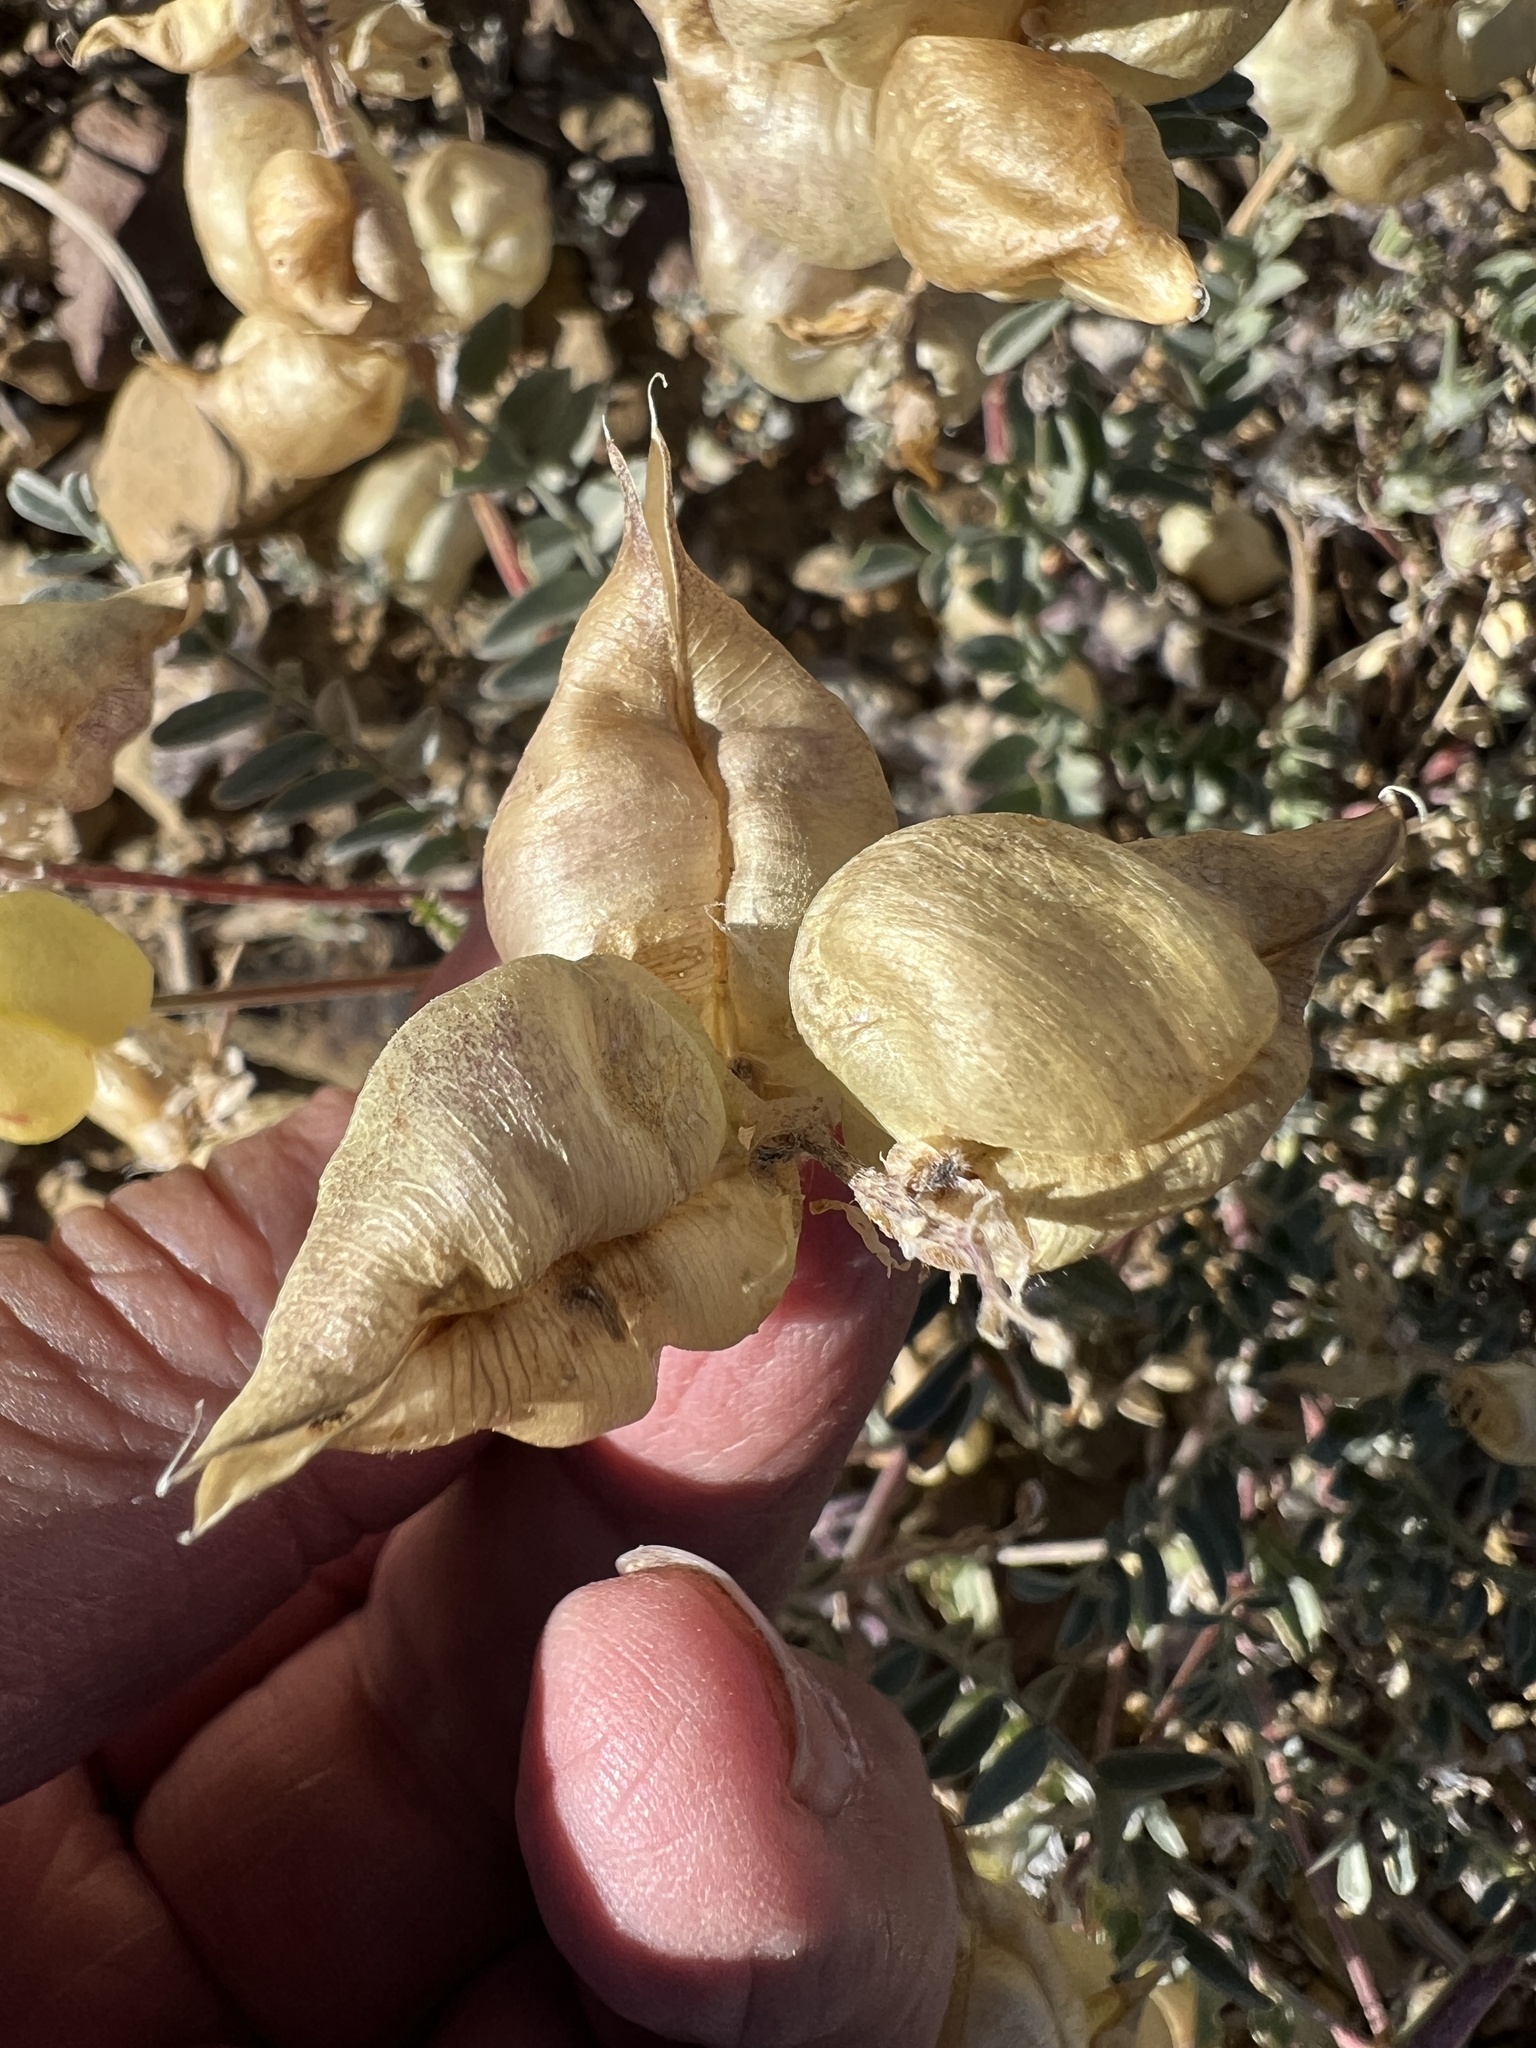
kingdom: Plantae
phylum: Tracheophyta
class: Magnoliopsida
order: Fabales
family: Fabaceae
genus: Astragalus
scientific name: Astragalus lentiginosus
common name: Freckled milkvetch
